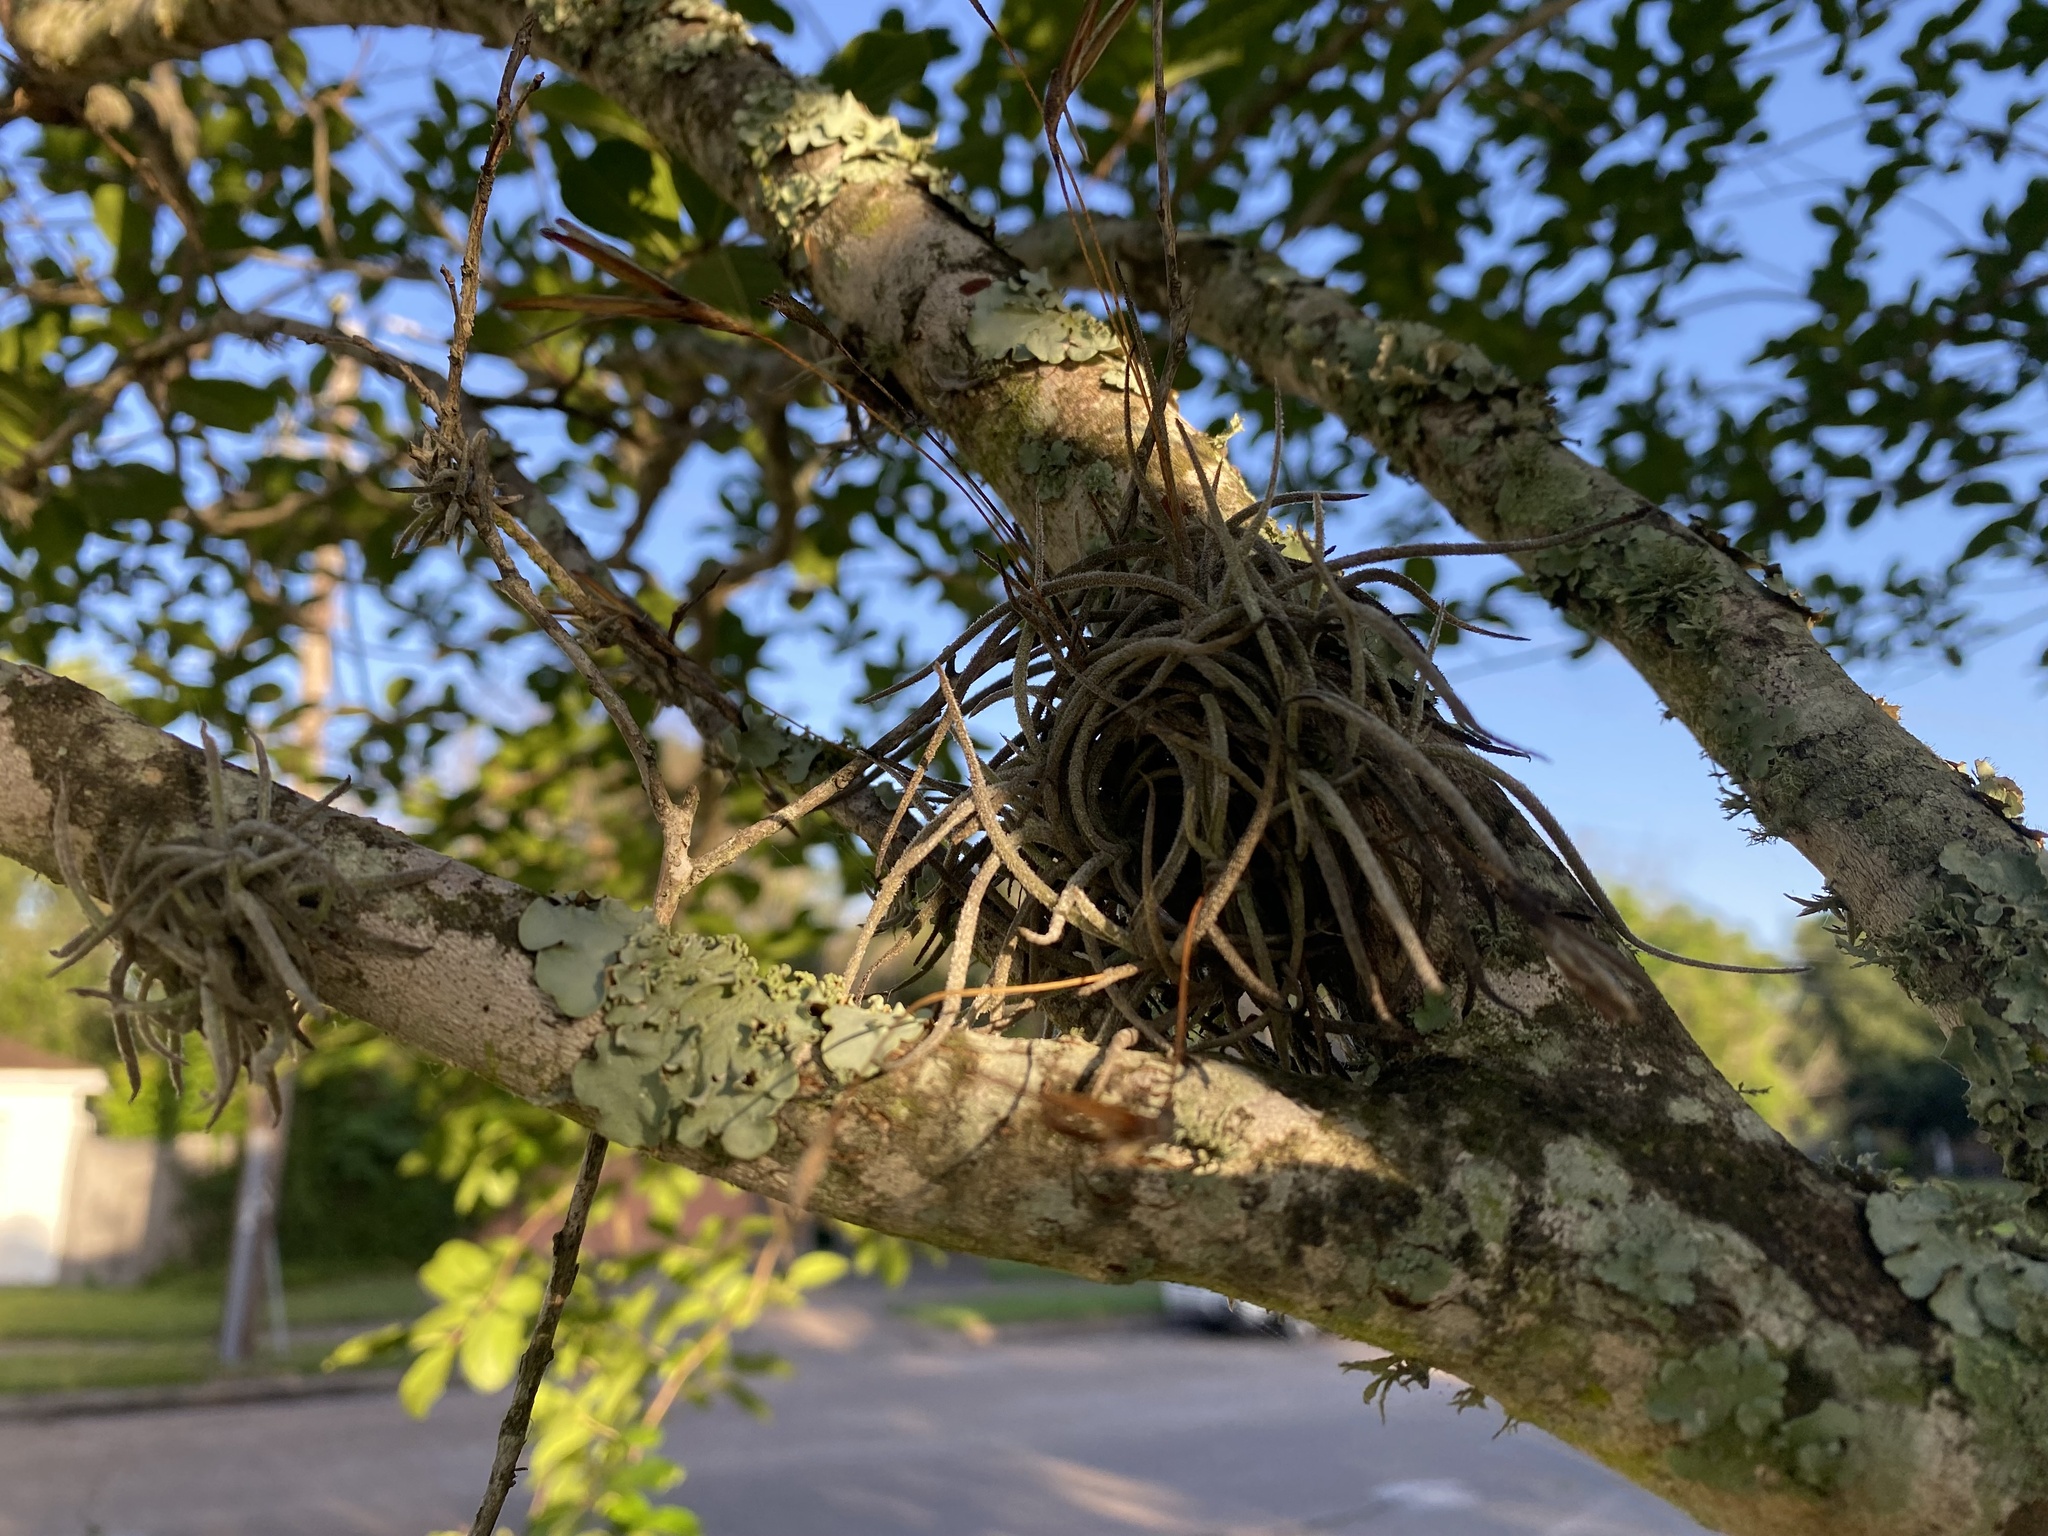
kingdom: Plantae
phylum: Tracheophyta
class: Liliopsida
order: Poales
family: Bromeliaceae
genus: Tillandsia
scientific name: Tillandsia recurvata
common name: Small ballmoss
